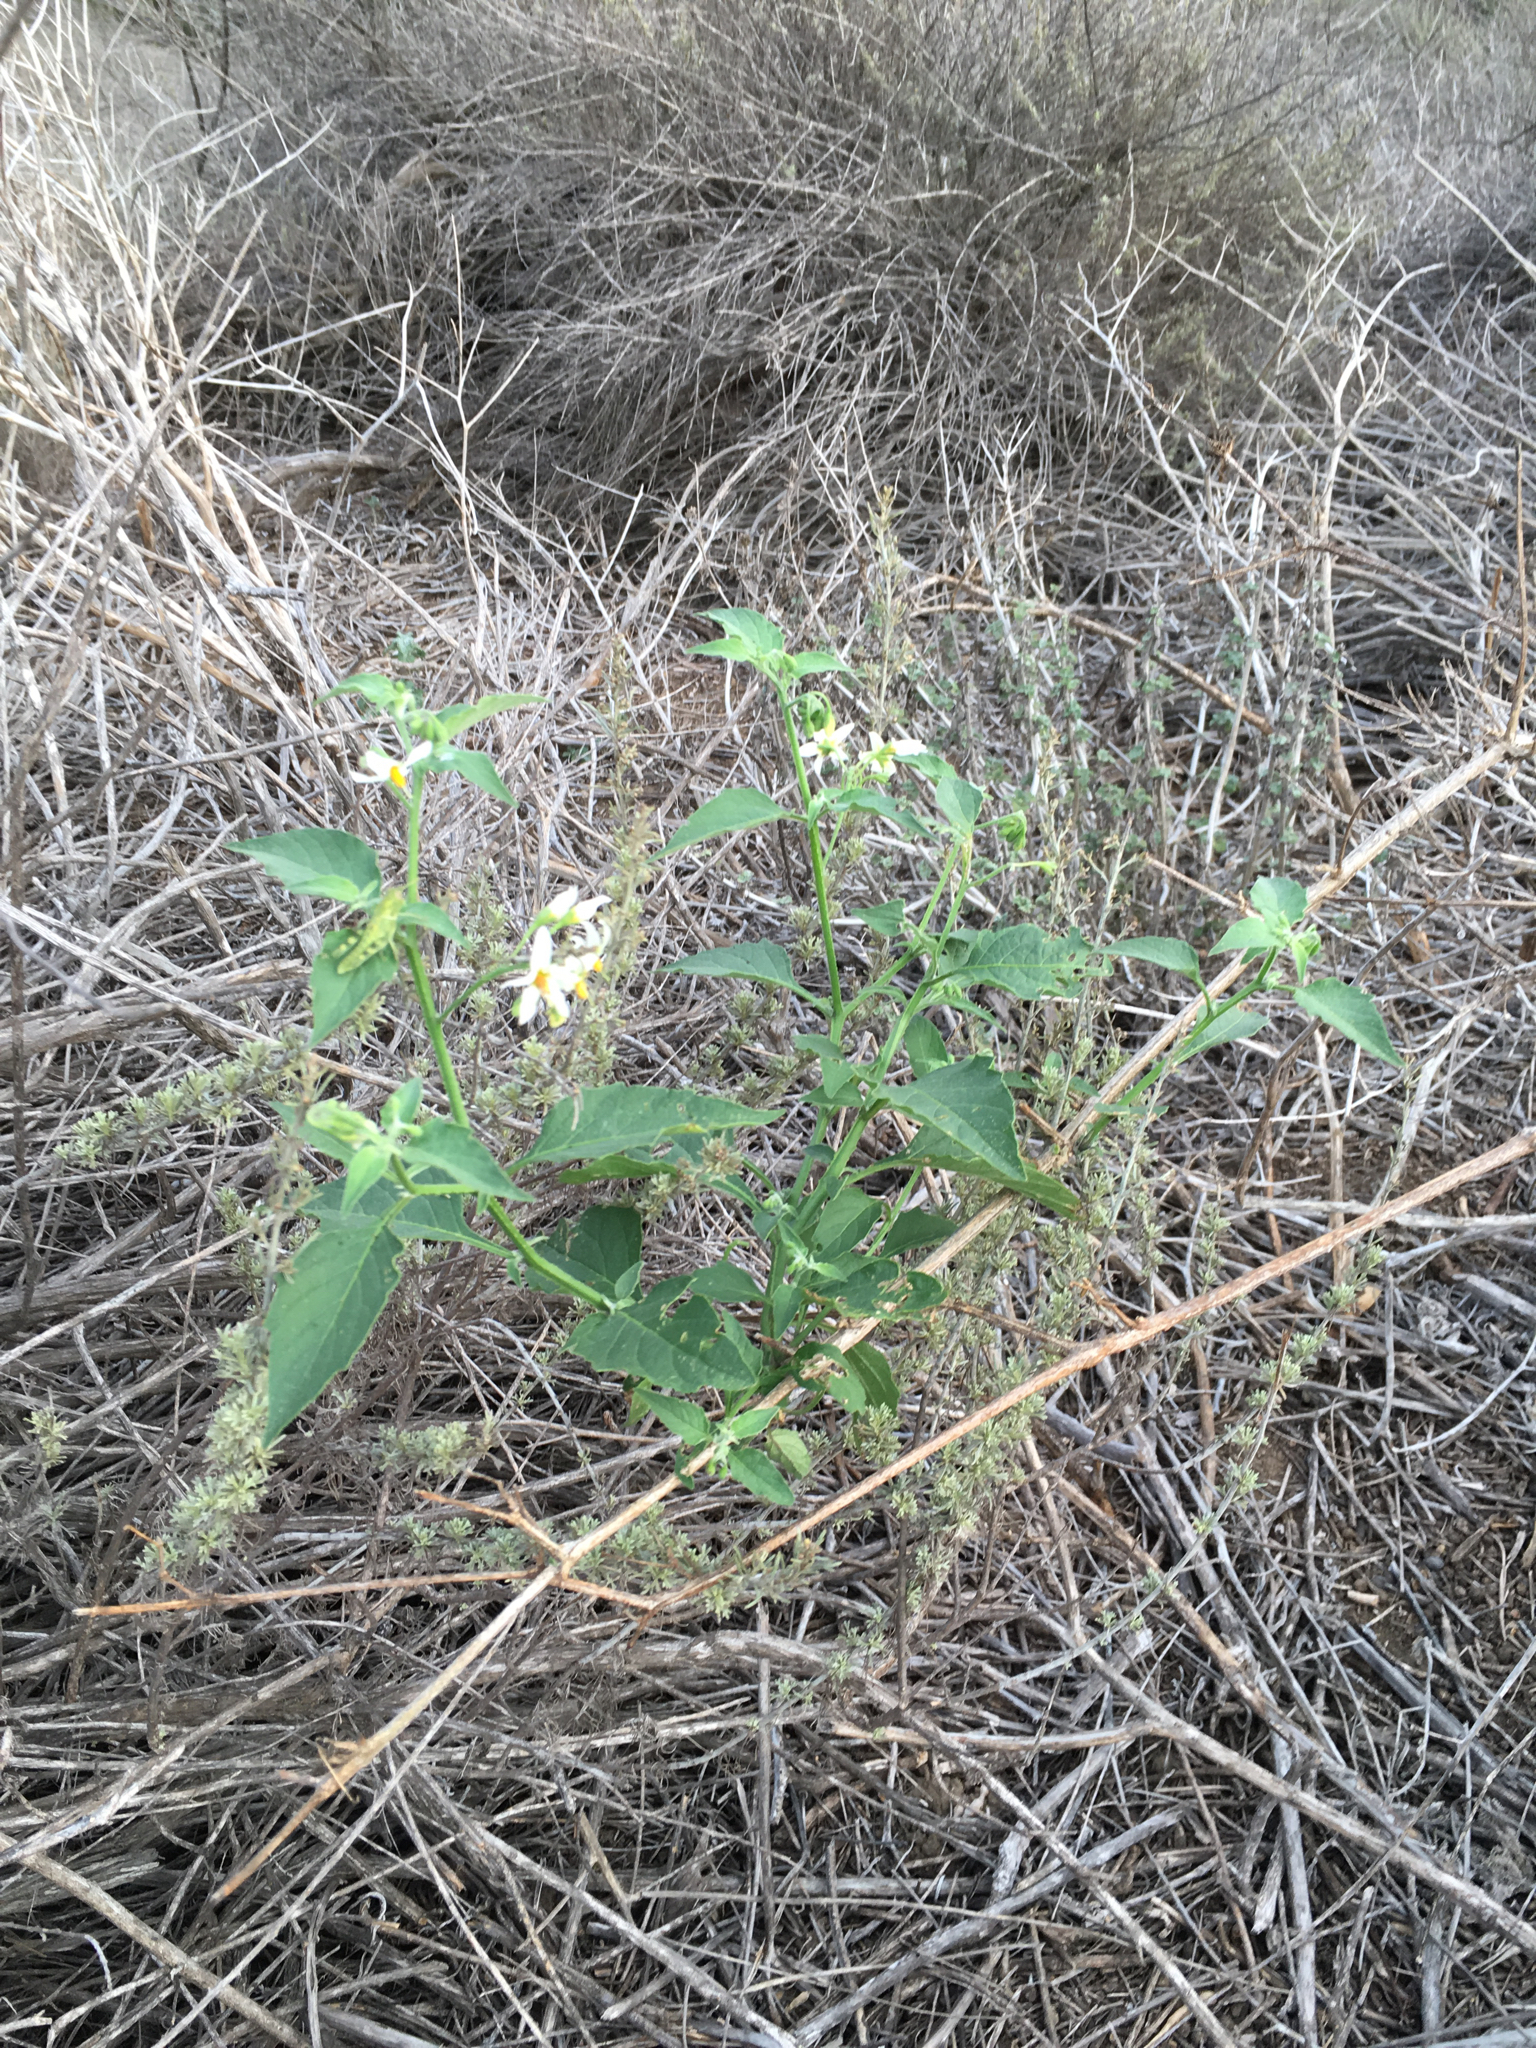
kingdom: Plantae
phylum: Tracheophyta
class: Magnoliopsida
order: Solanales
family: Solanaceae
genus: Solanum
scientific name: Solanum douglasii
